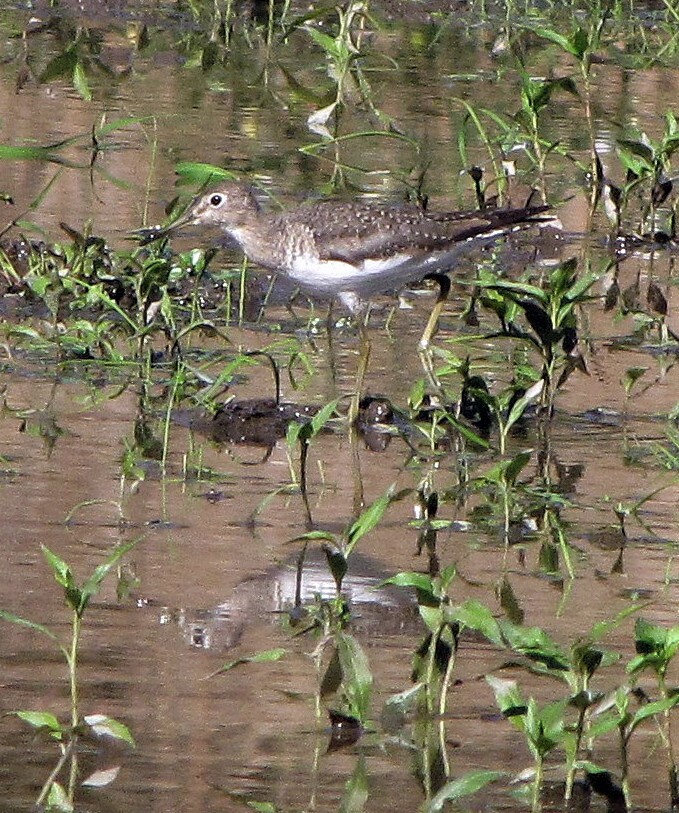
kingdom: Animalia
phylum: Chordata
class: Aves
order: Charadriiformes
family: Scolopacidae
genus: Tringa
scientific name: Tringa solitaria
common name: Solitary sandpiper
